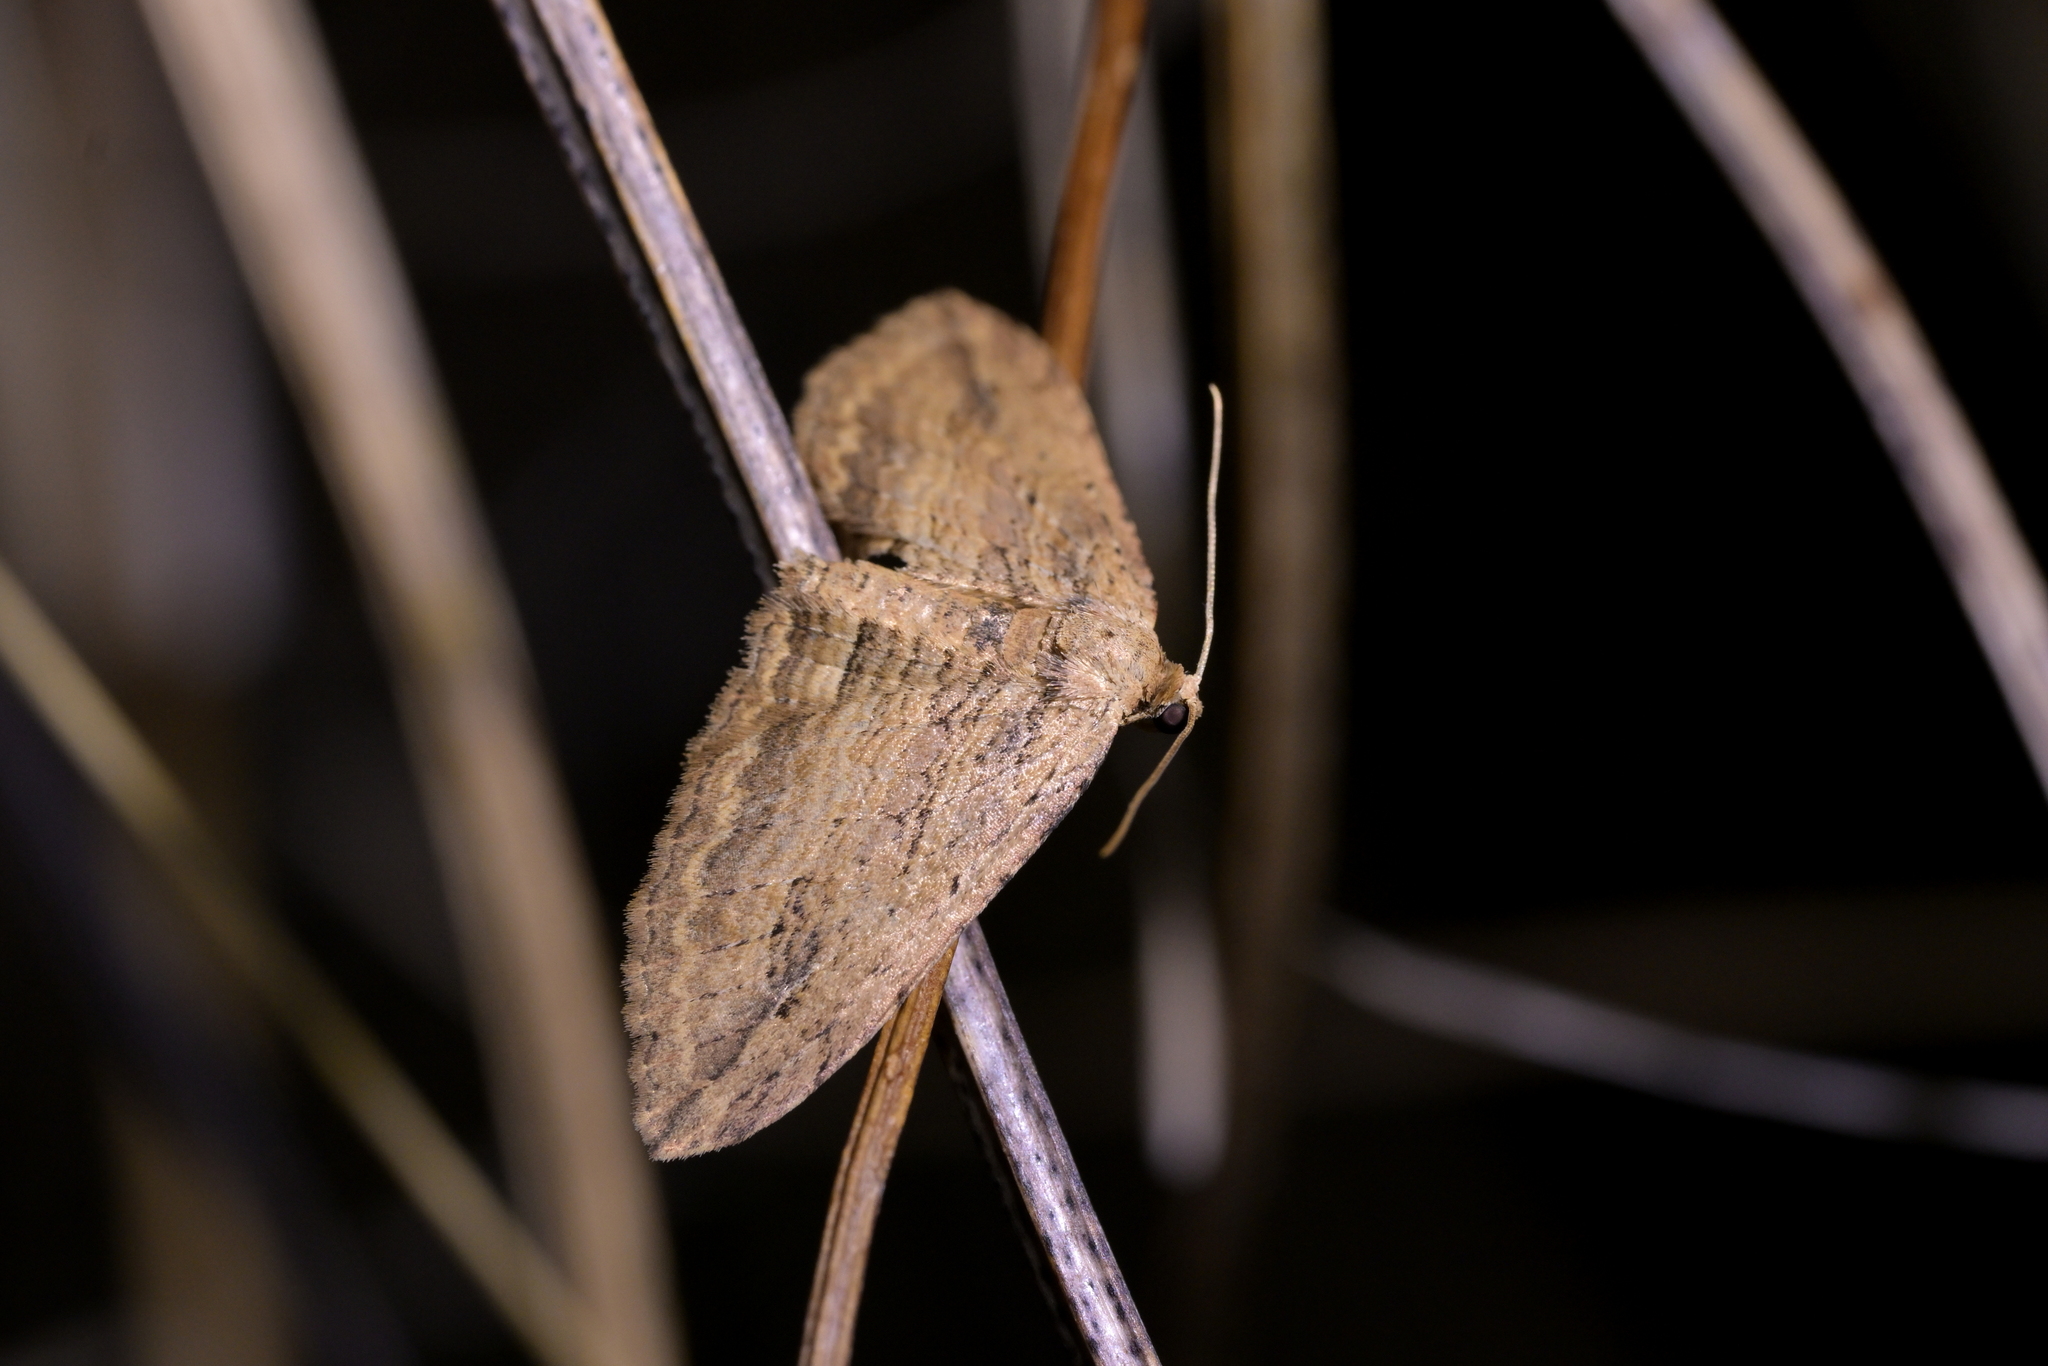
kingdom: Animalia
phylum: Arthropoda
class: Insecta
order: Lepidoptera
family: Geometridae
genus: Austrocidaria
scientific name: Austrocidaria gobiata
